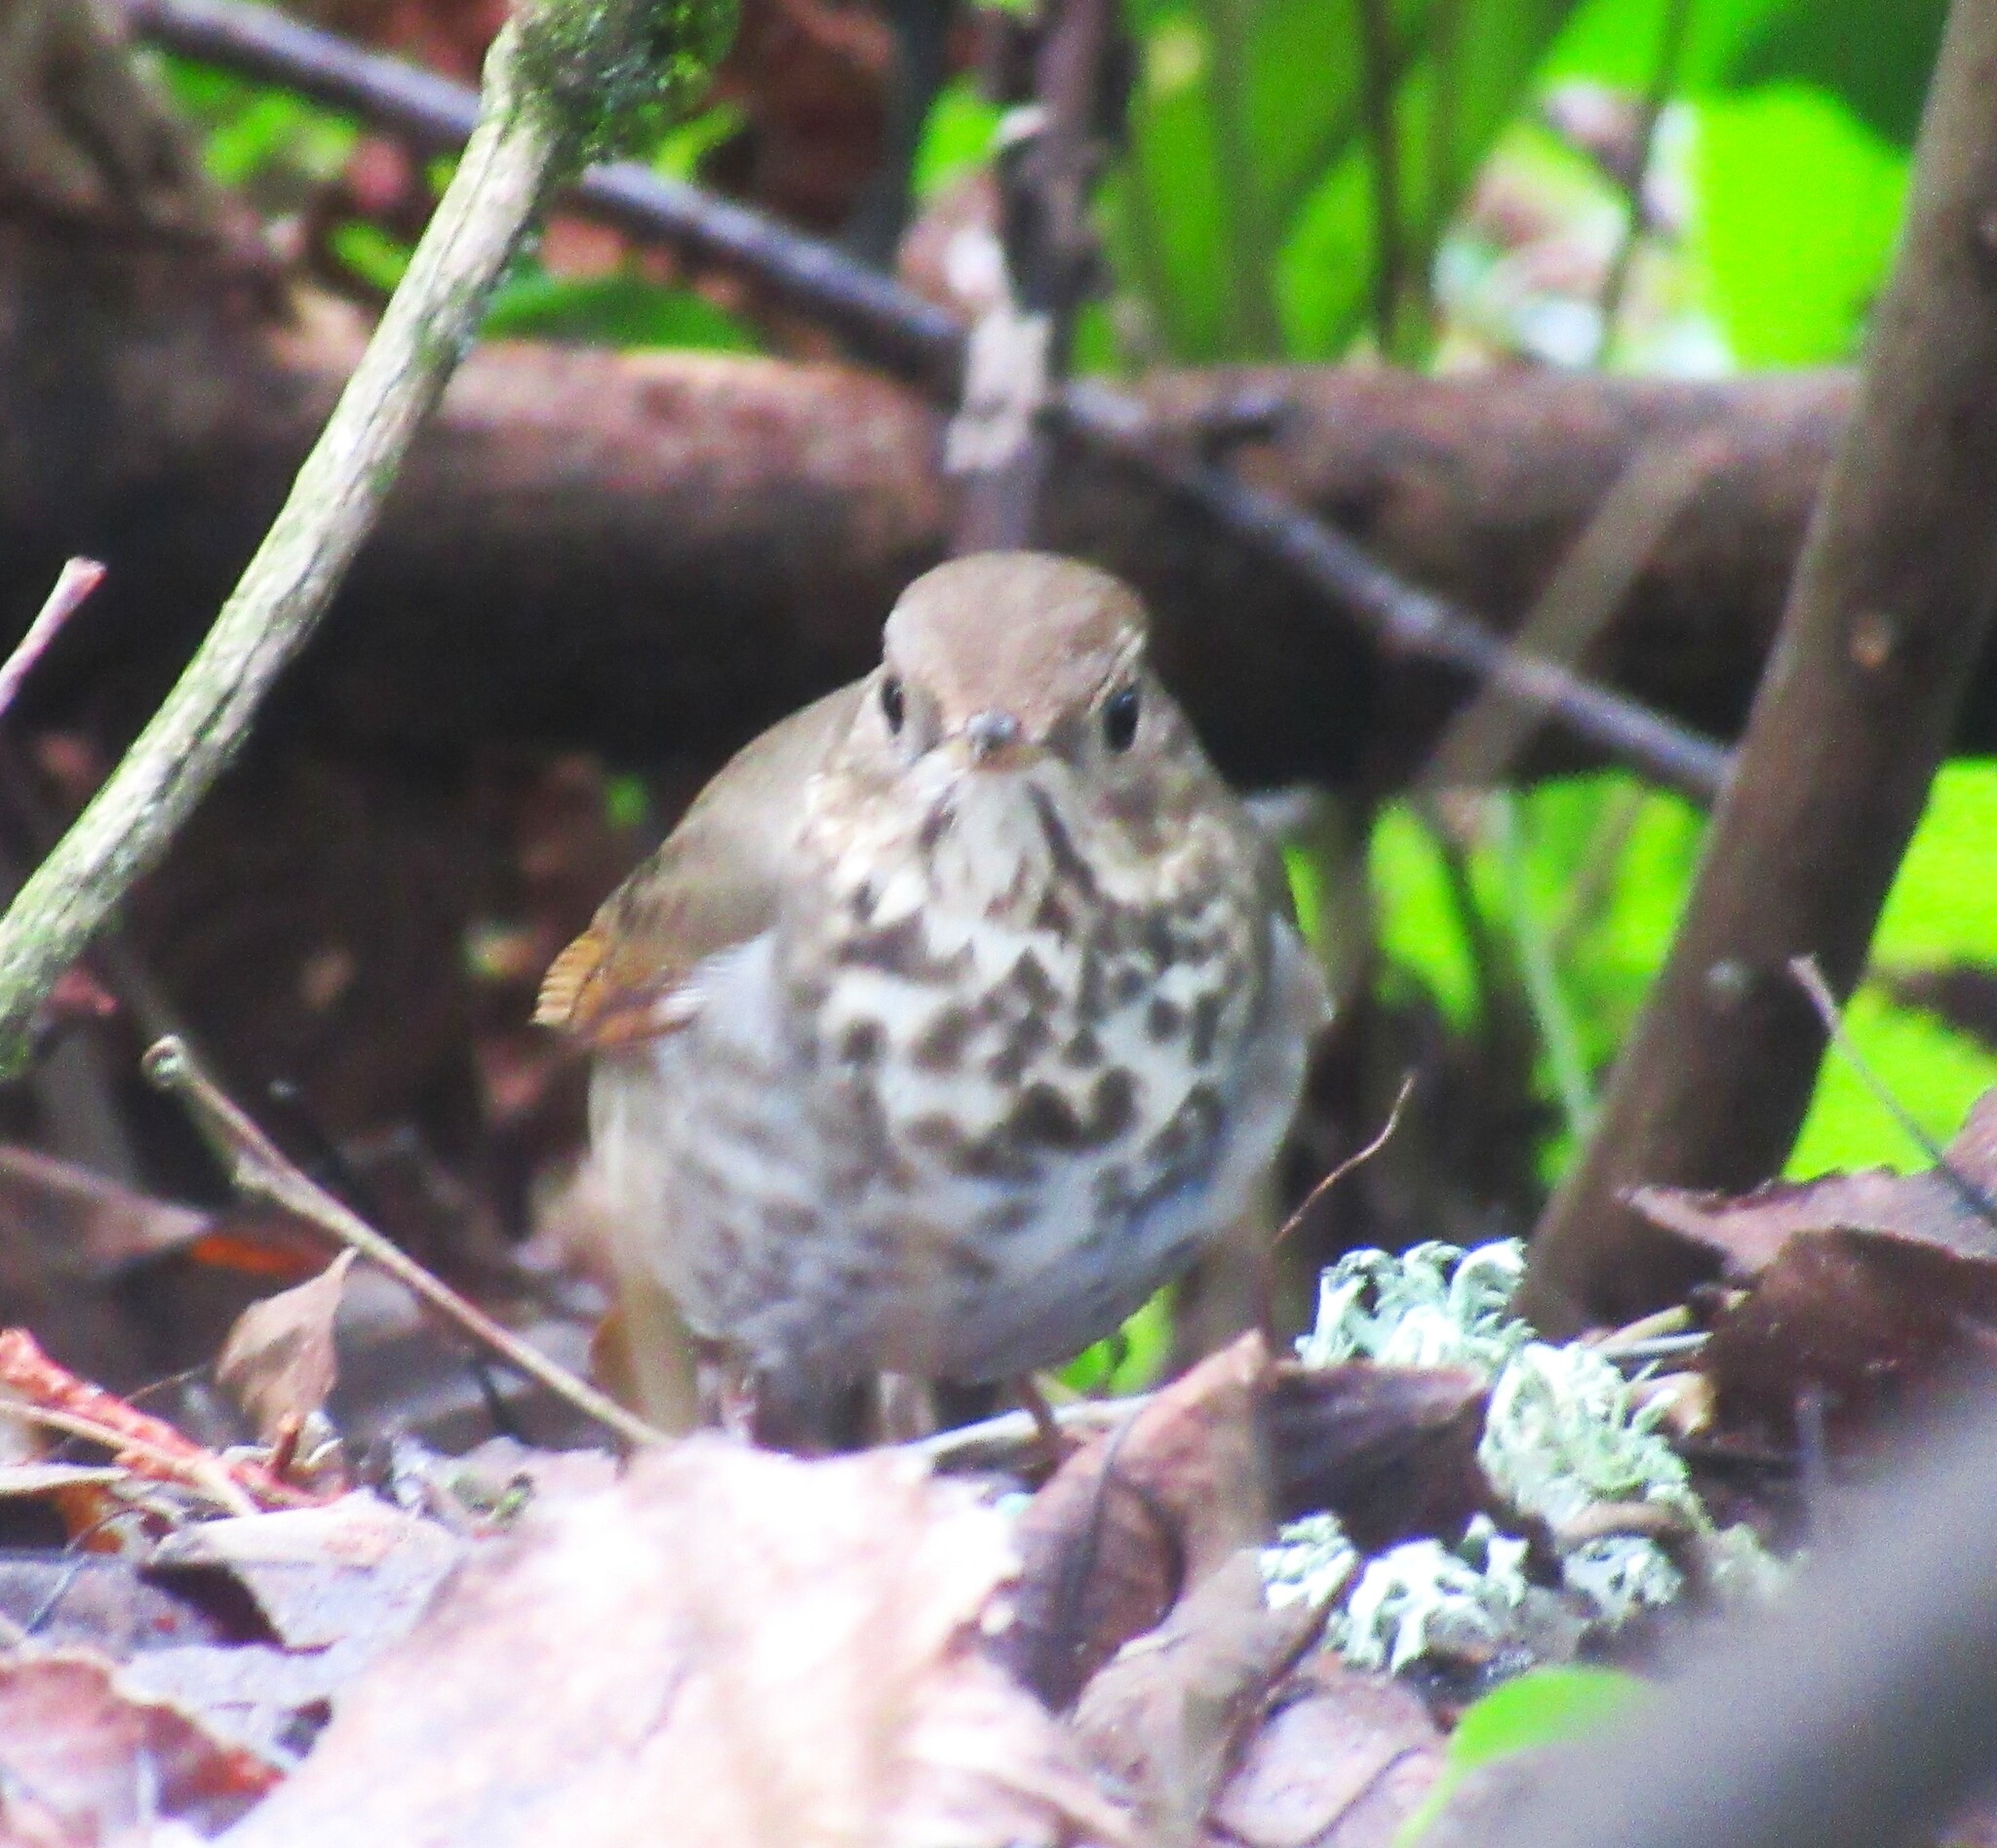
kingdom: Animalia
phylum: Chordata
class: Aves
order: Passeriformes
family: Turdidae
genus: Catharus
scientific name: Catharus guttatus
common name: Hermit thrush
